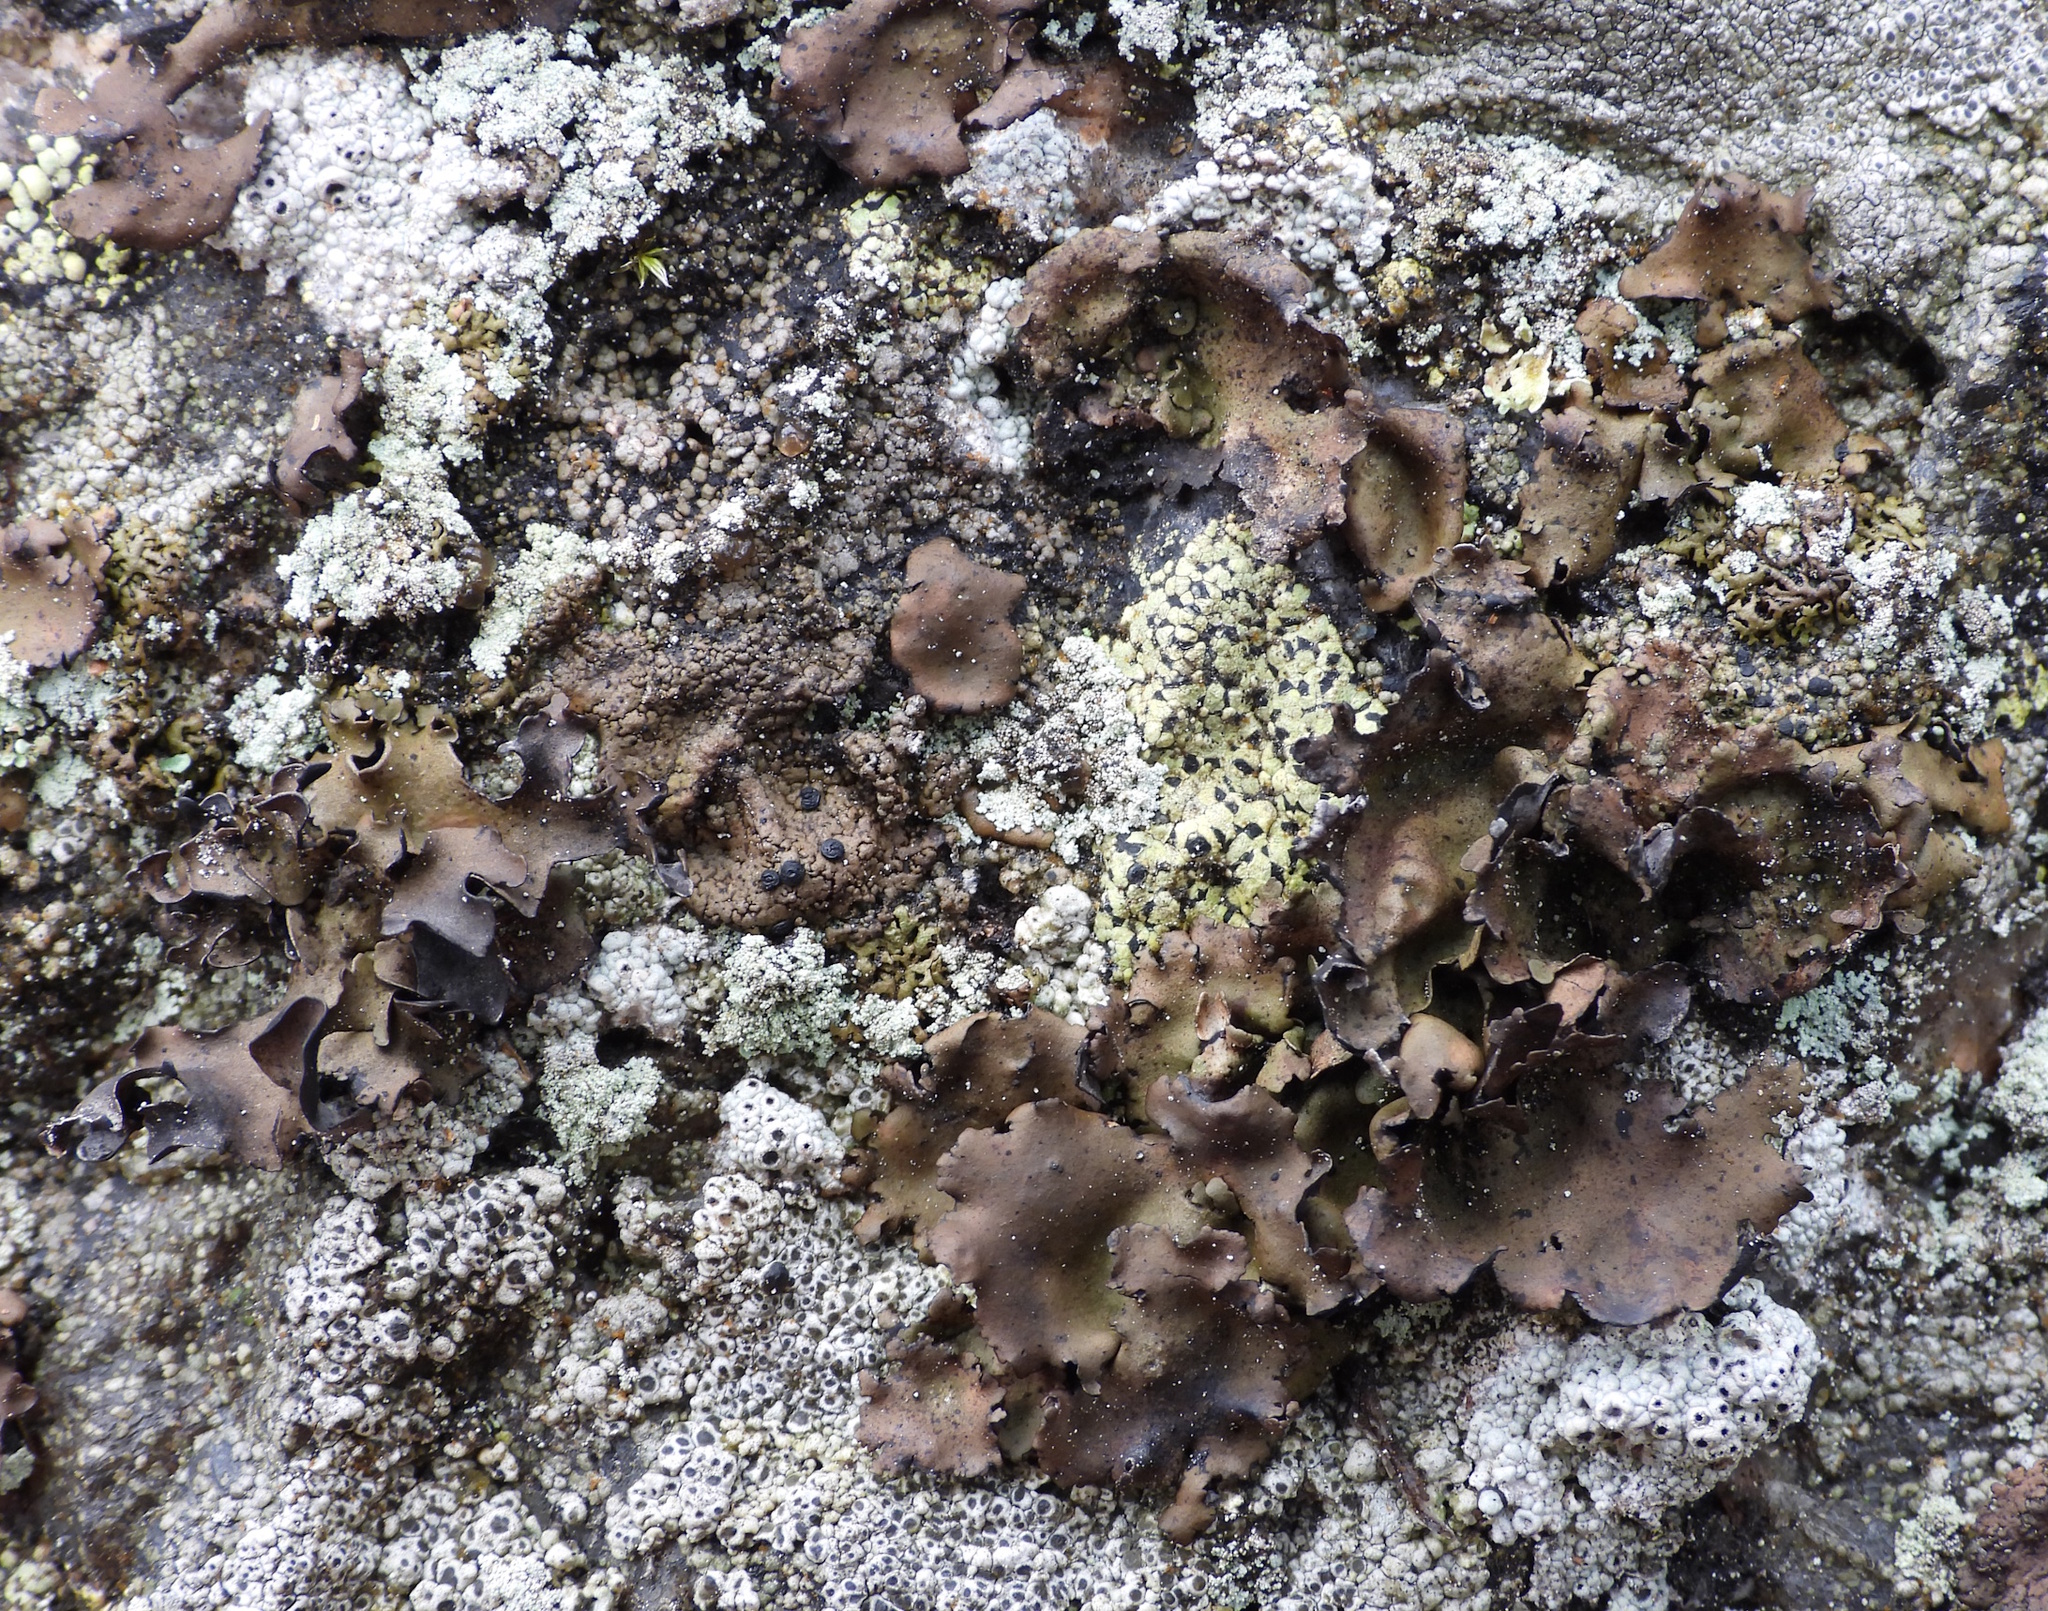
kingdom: Fungi
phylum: Ascomycota
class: Lecanoromycetes
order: Umbilicariales
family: Umbilicariaceae
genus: Umbilicaria
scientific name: Umbilicaria polyphylla
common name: Petalled rocktripe lichen
